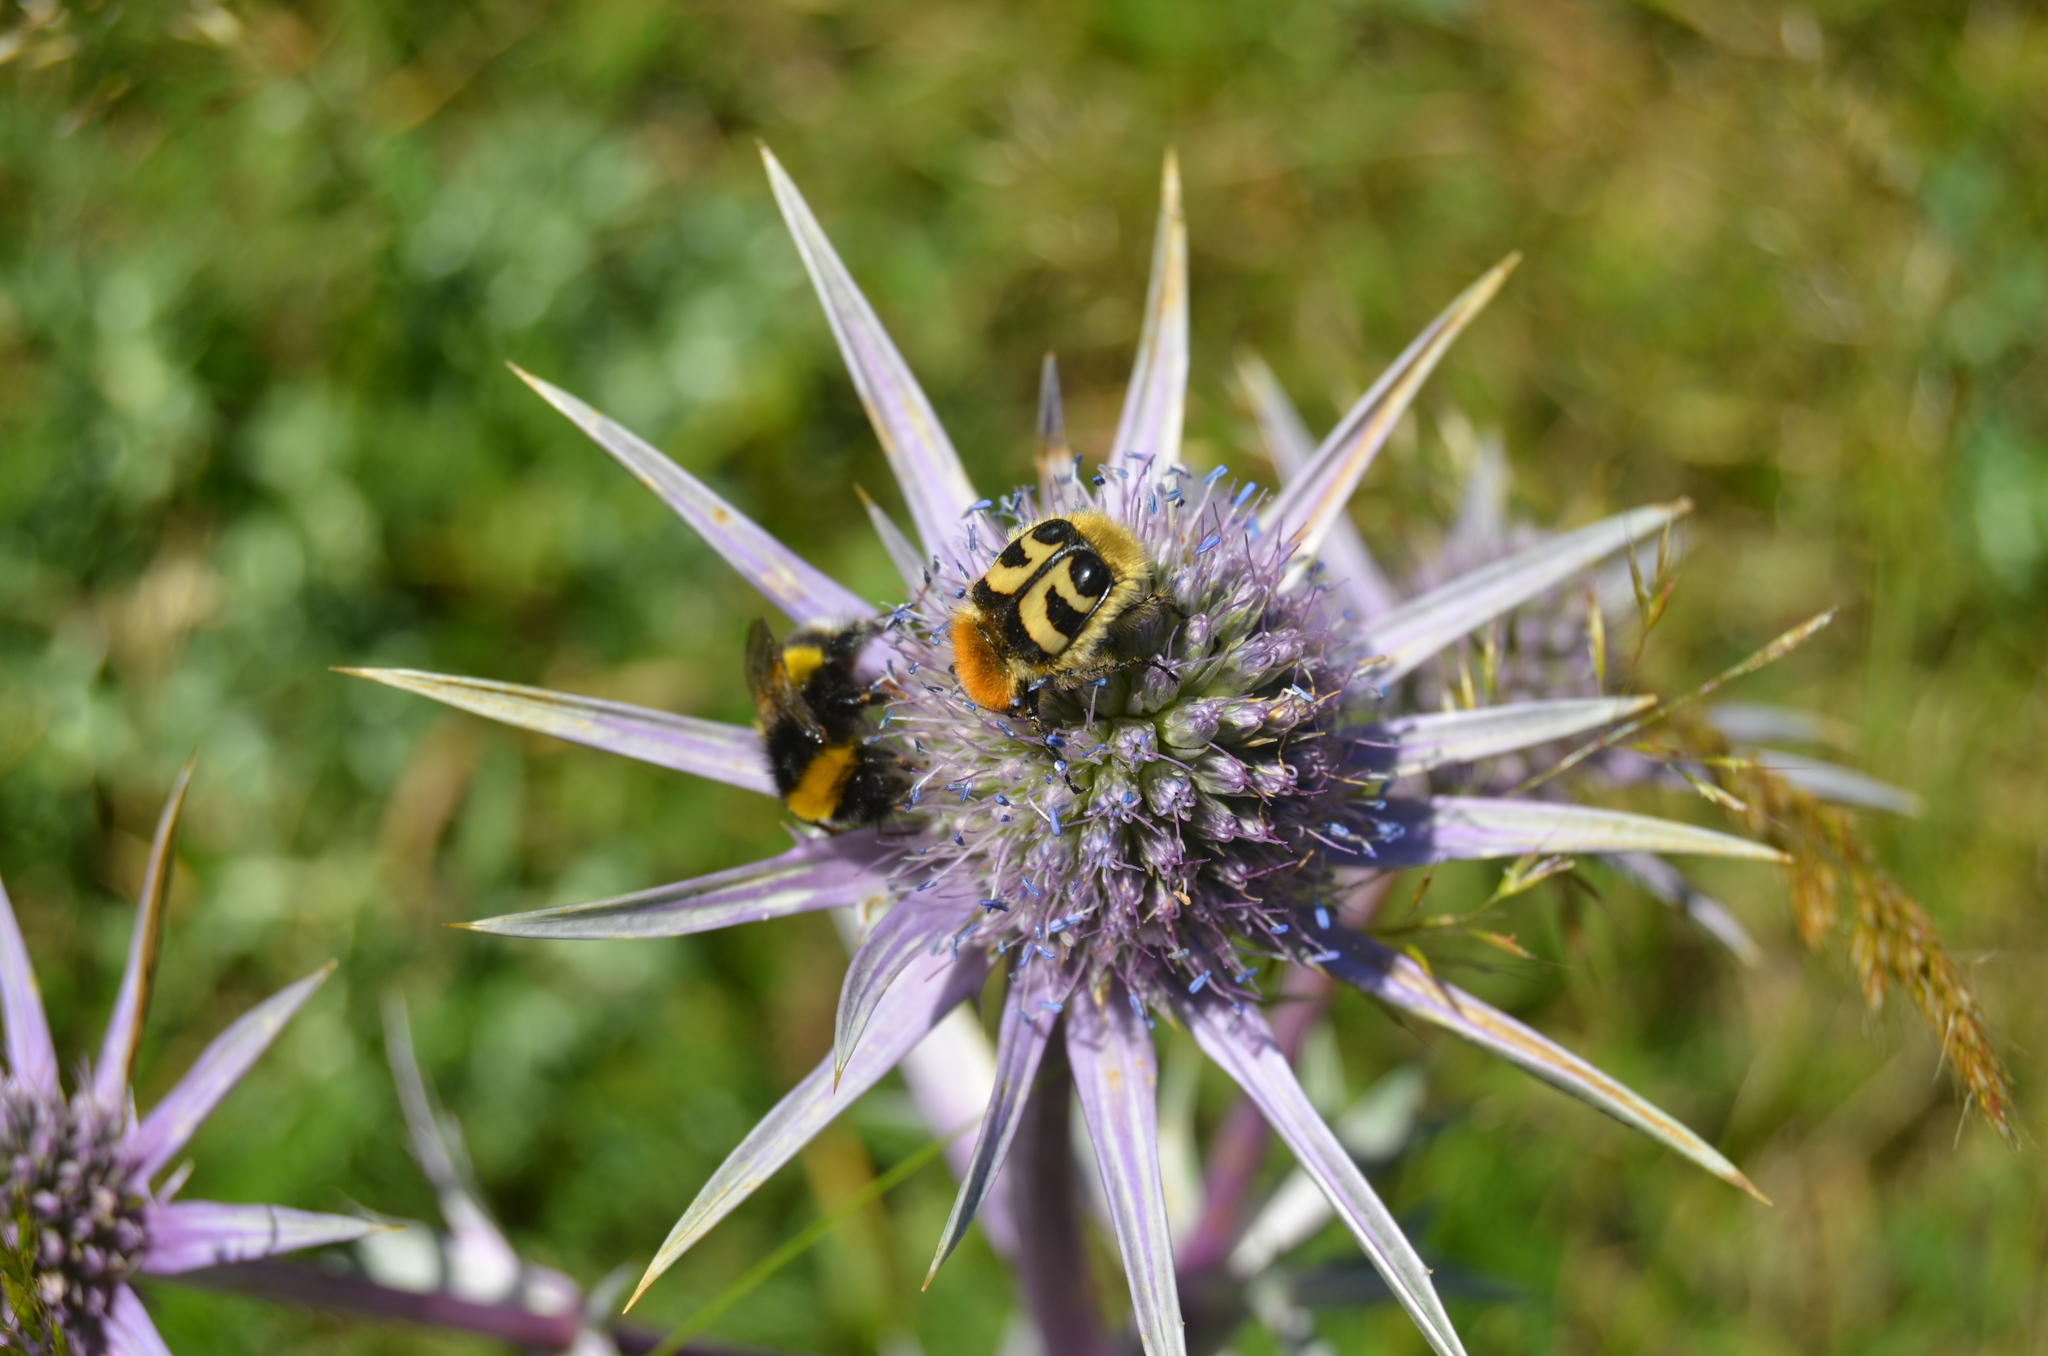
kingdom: Animalia
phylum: Arthropoda
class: Insecta
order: Coleoptera
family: Scarabaeidae
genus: Trichius
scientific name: Trichius fasciatus
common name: Bee beetle
